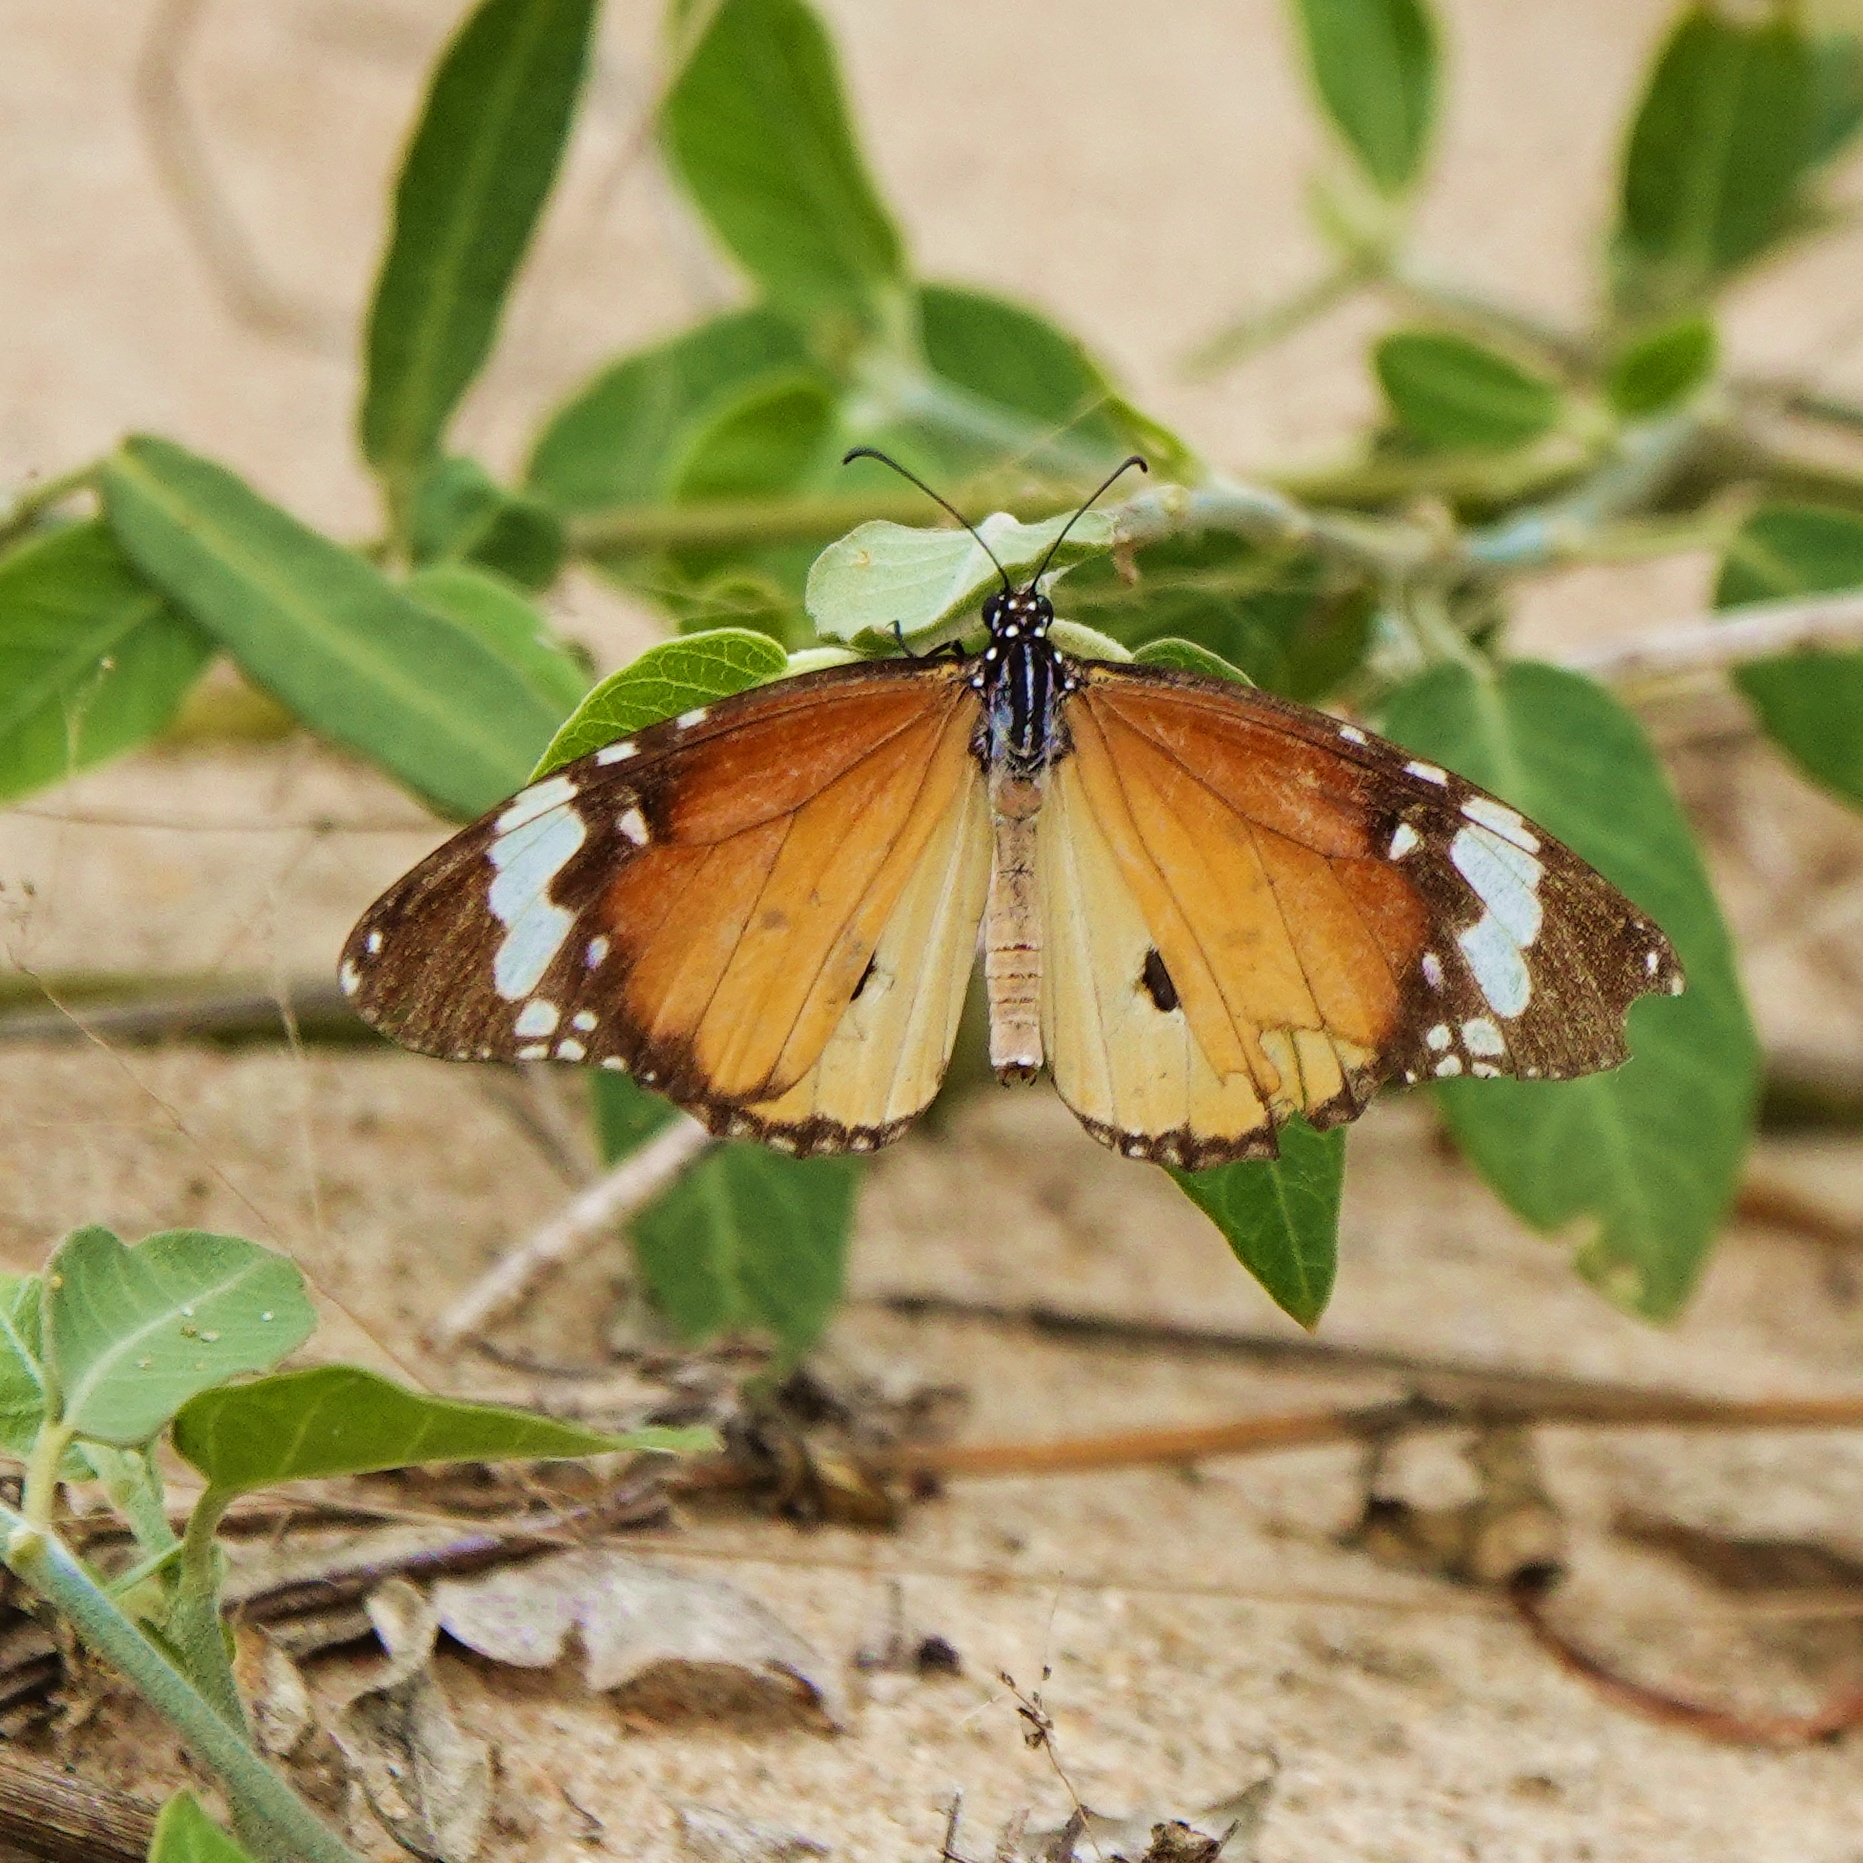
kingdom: Animalia
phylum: Arthropoda
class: Insecta
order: Lepidoptera
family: Nymphalidae
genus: Danaus
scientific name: Danaus chrysippus
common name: Plain tiger
